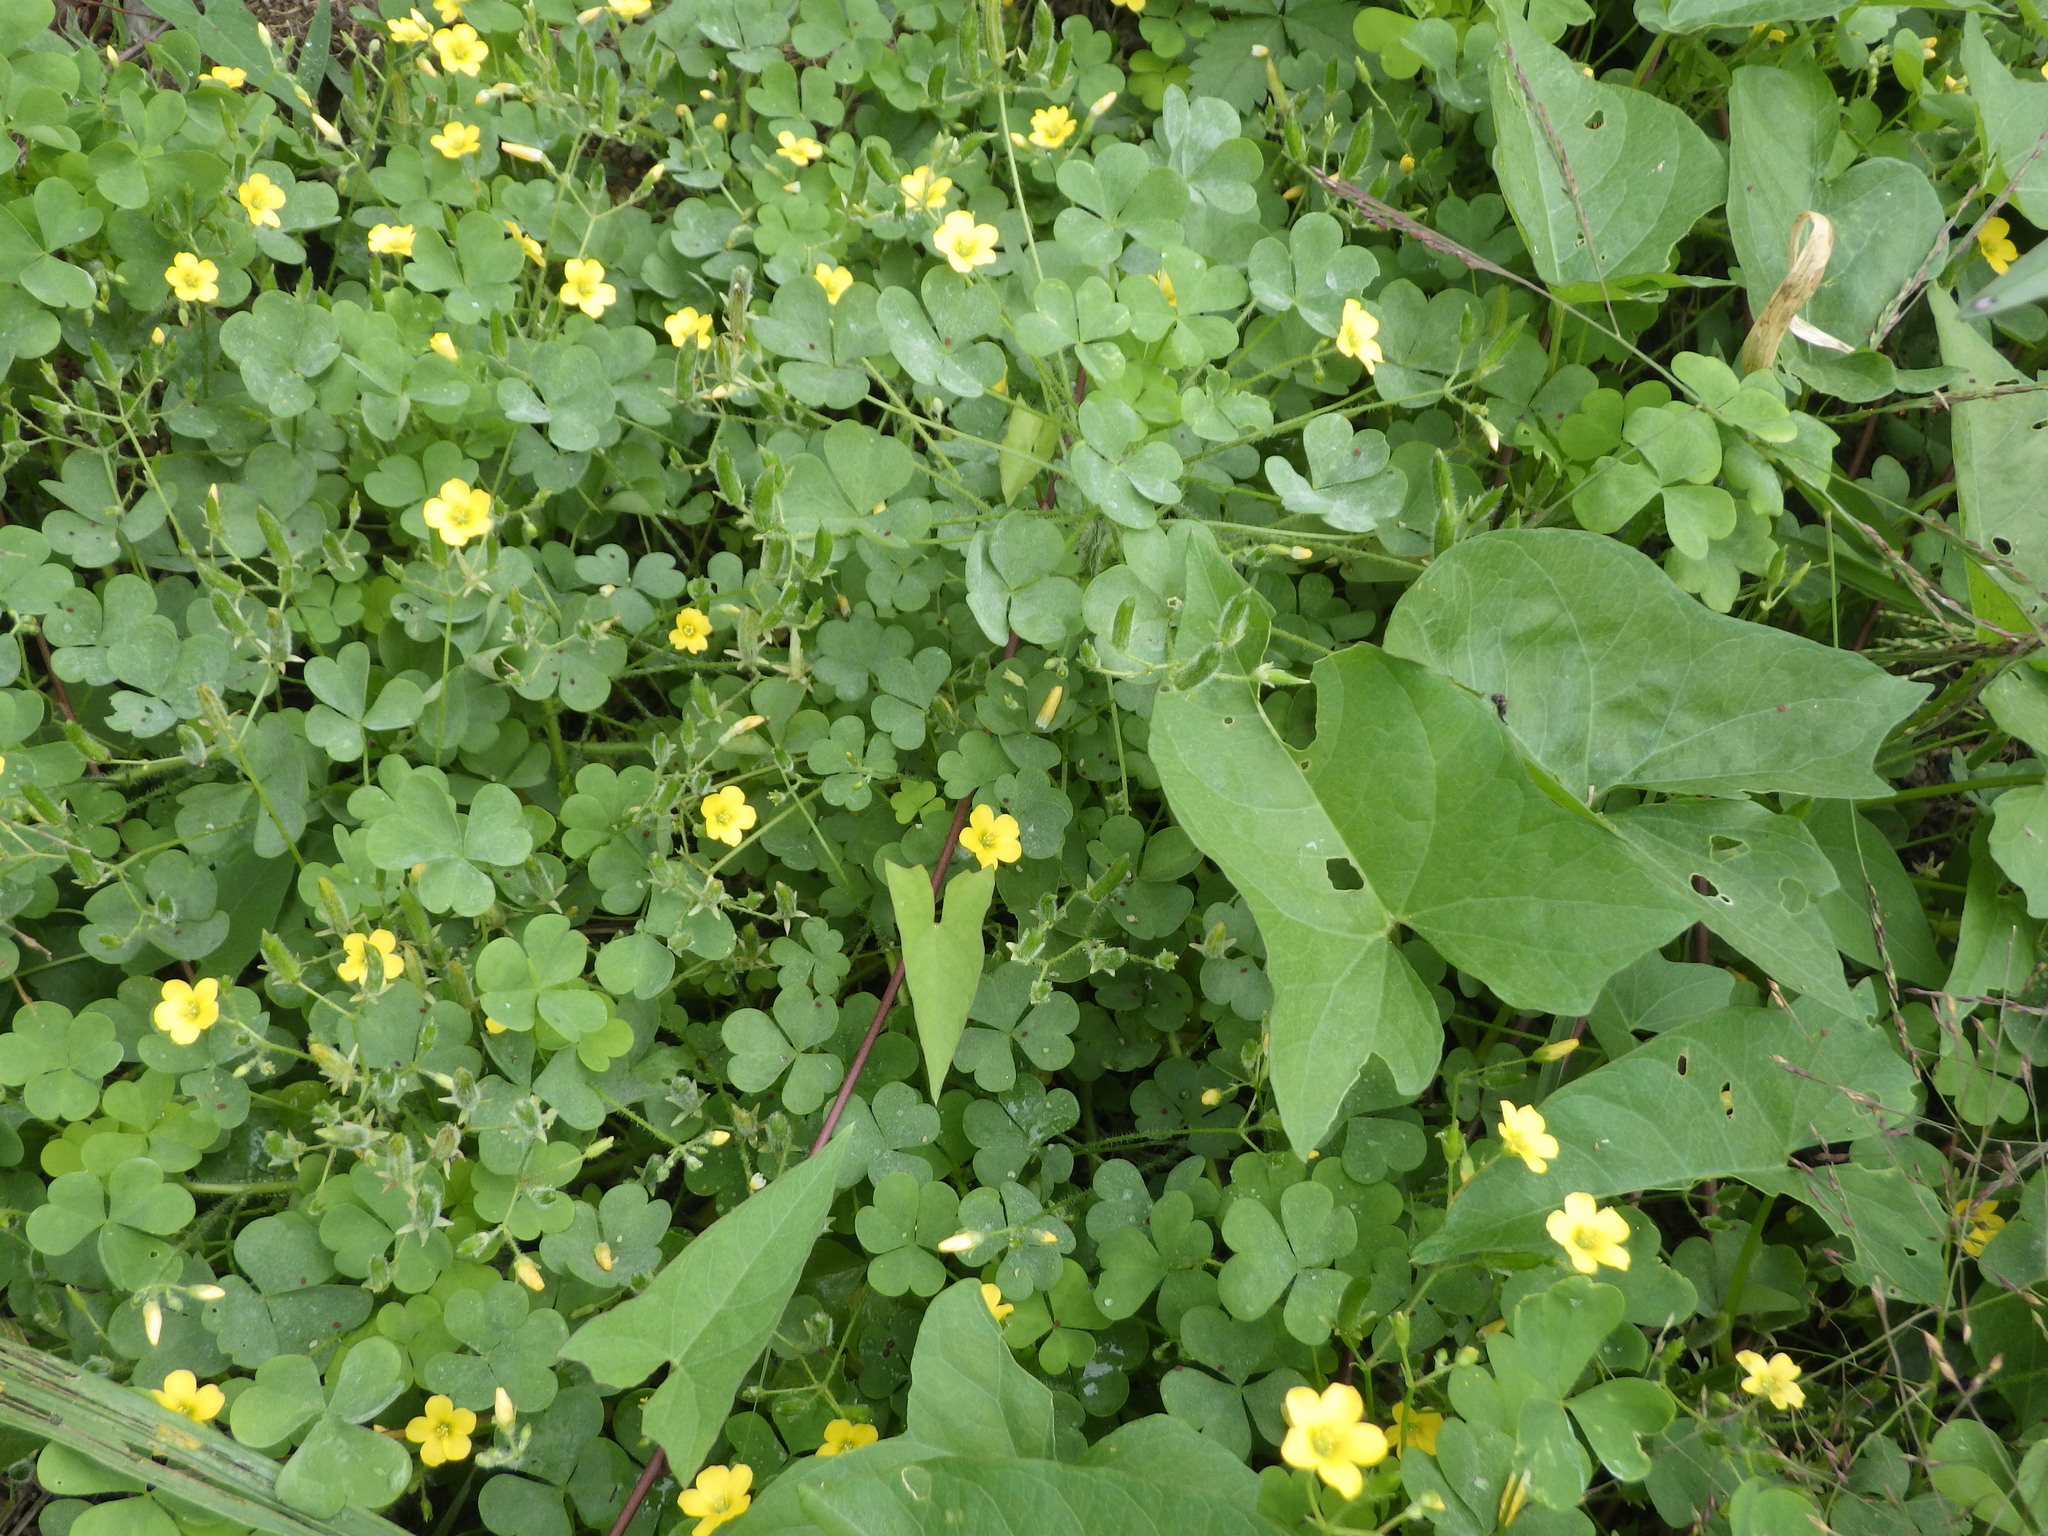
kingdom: Plantae
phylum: Tracheophyta
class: Magnoliopsida
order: Oxalidales
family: Oxalidaceae
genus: Oxalis
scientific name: Oxalis stricta
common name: Upright yellow-sorrel
